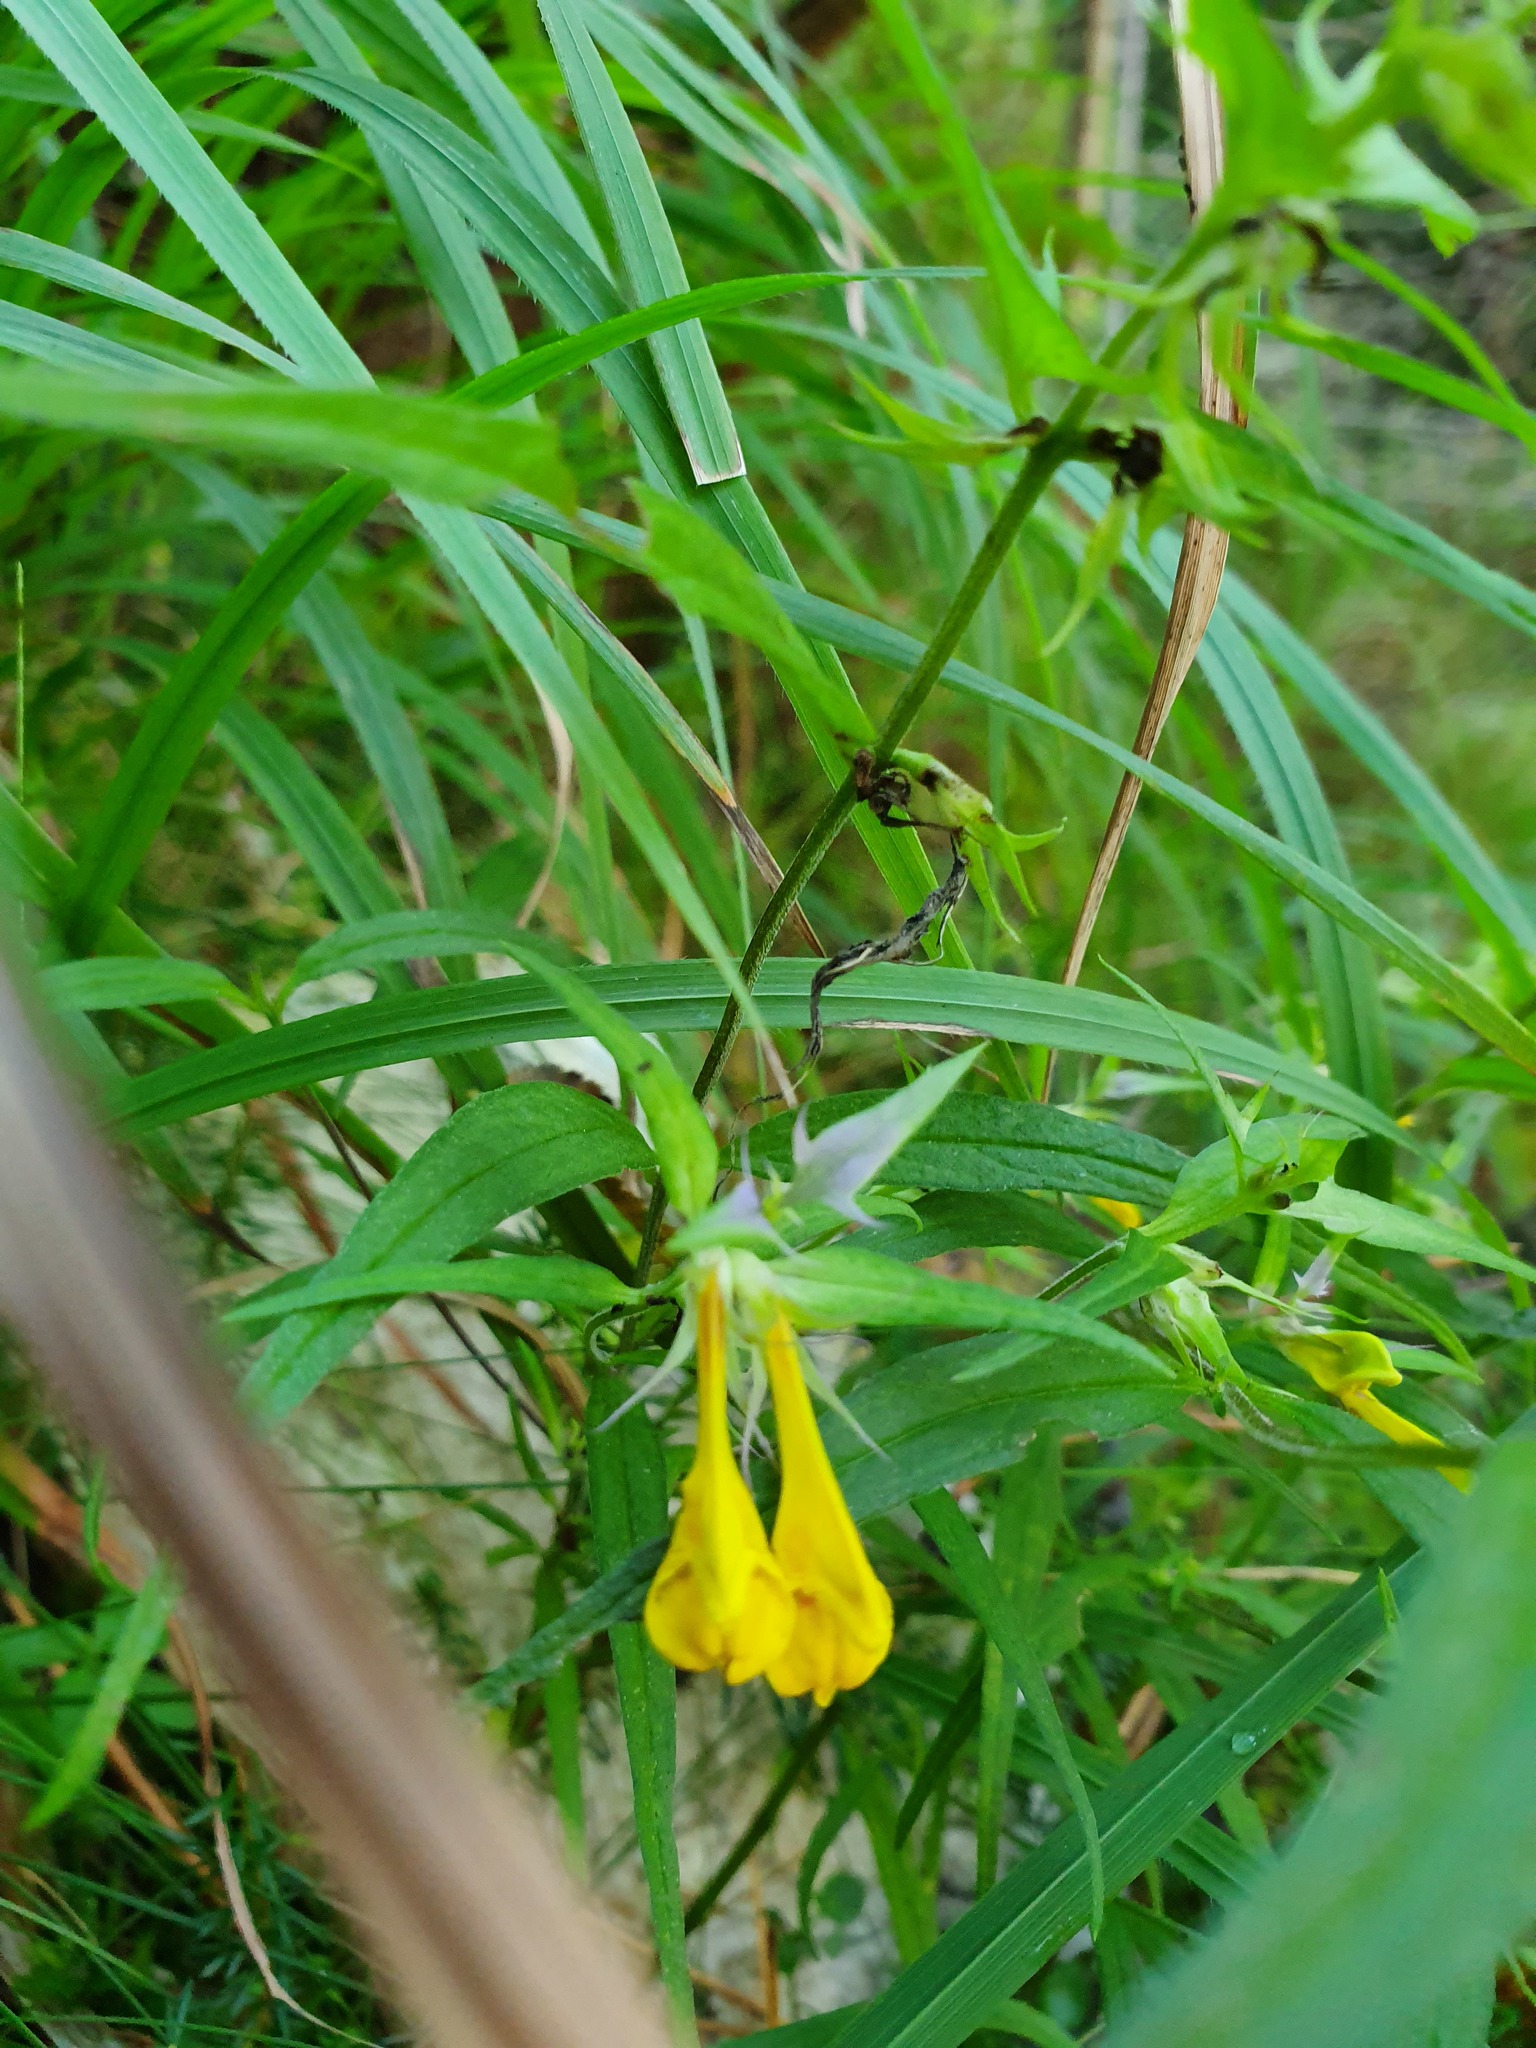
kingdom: Plantae
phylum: Tracheophyta
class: Magnoliopsida
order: Lamiales
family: Orobanchaceae
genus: Melampyrum
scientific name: Melampyrum bihariense
